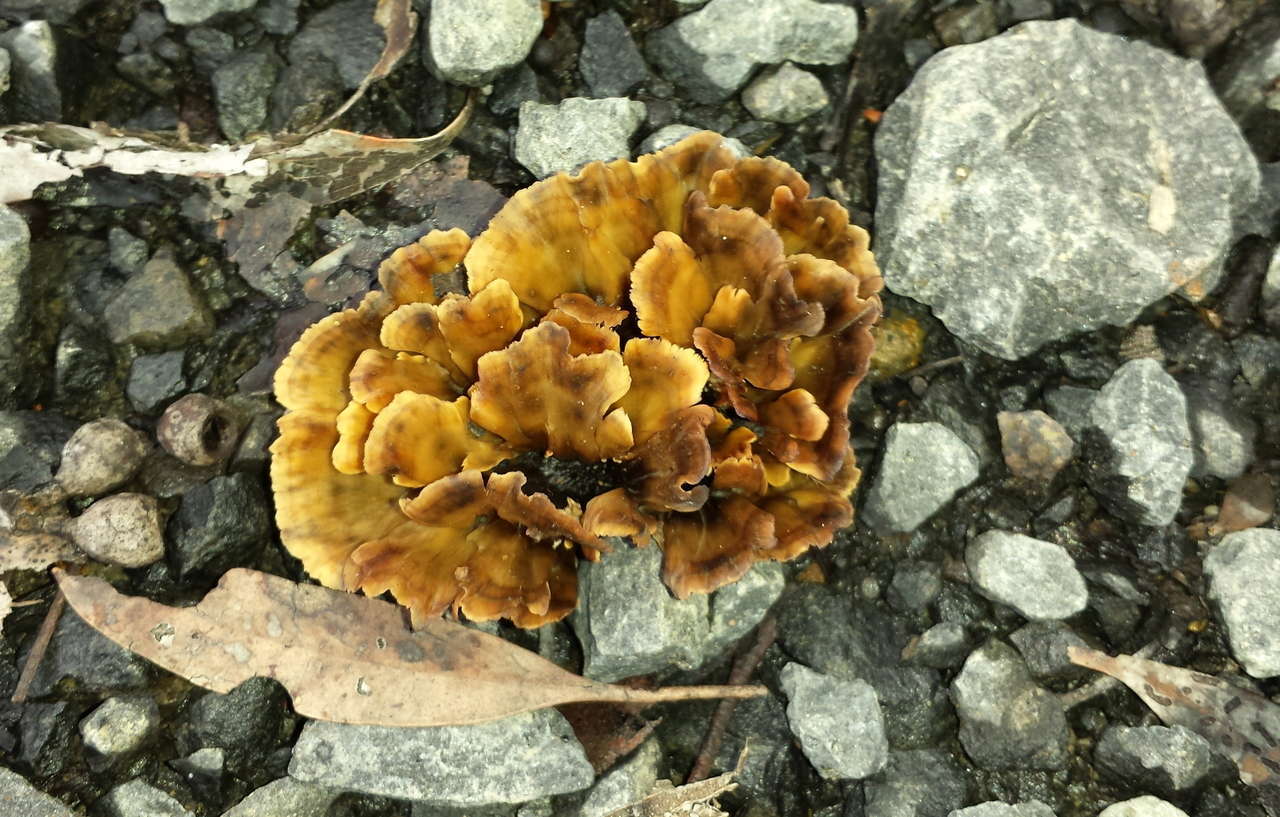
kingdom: Fungi
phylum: Basidiomycota
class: Agaricomycetes
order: Polyporales
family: Podoscyphaceae
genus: Podoscypha
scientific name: Podoscypha petalodes
